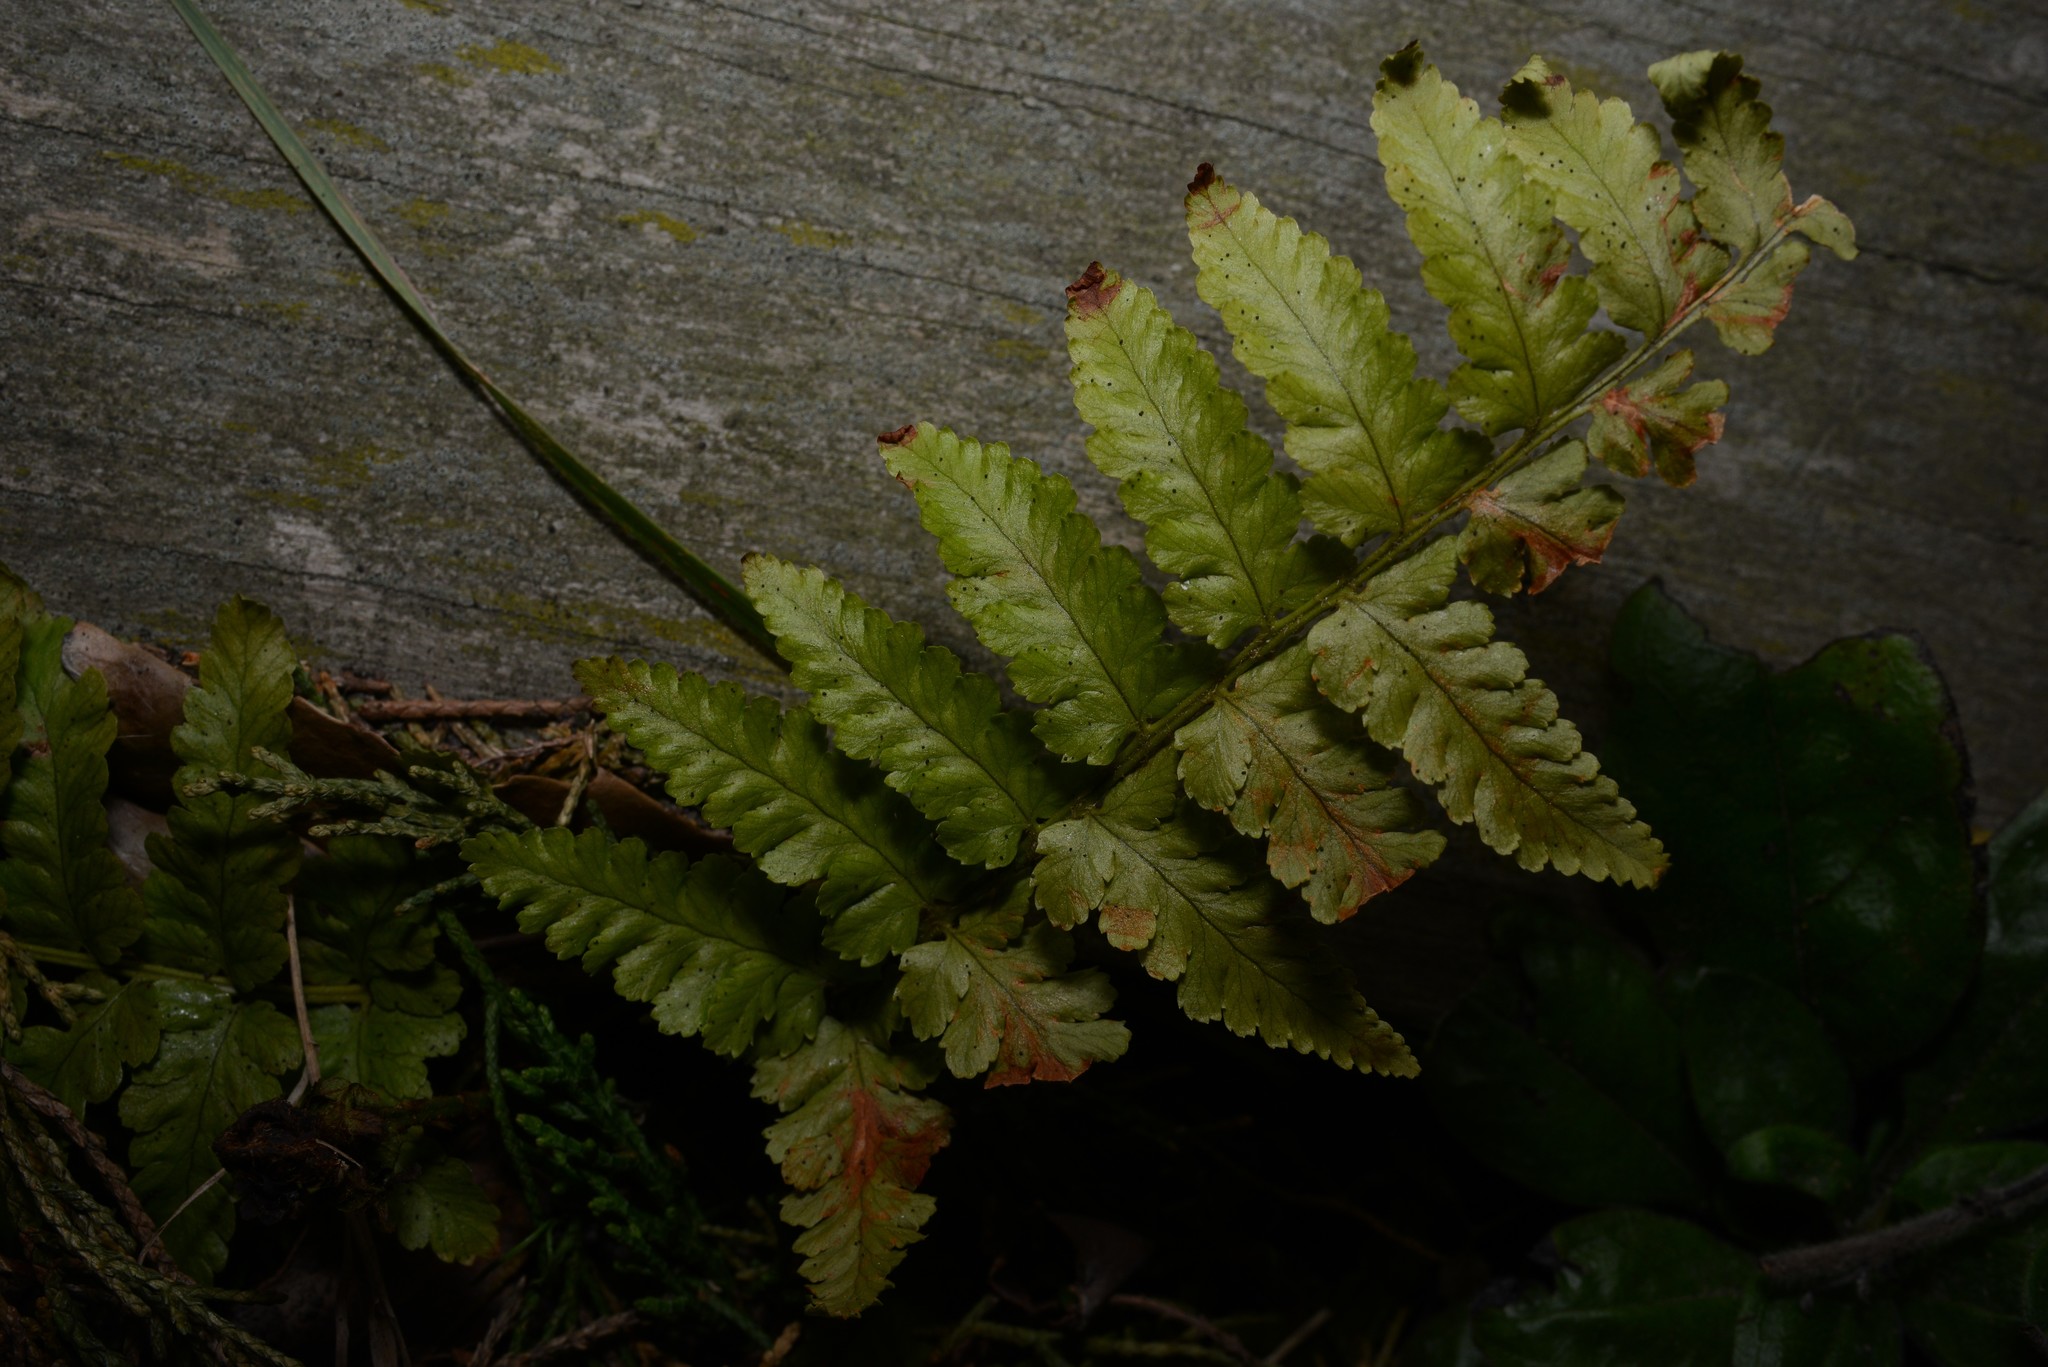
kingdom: Plantae
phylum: Tracheophyta
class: Polypodiopsida
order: Polypodiales
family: Dryopteridaceae
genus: Dryopteris
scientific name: Dryopteris filix-mas
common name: Male fern
